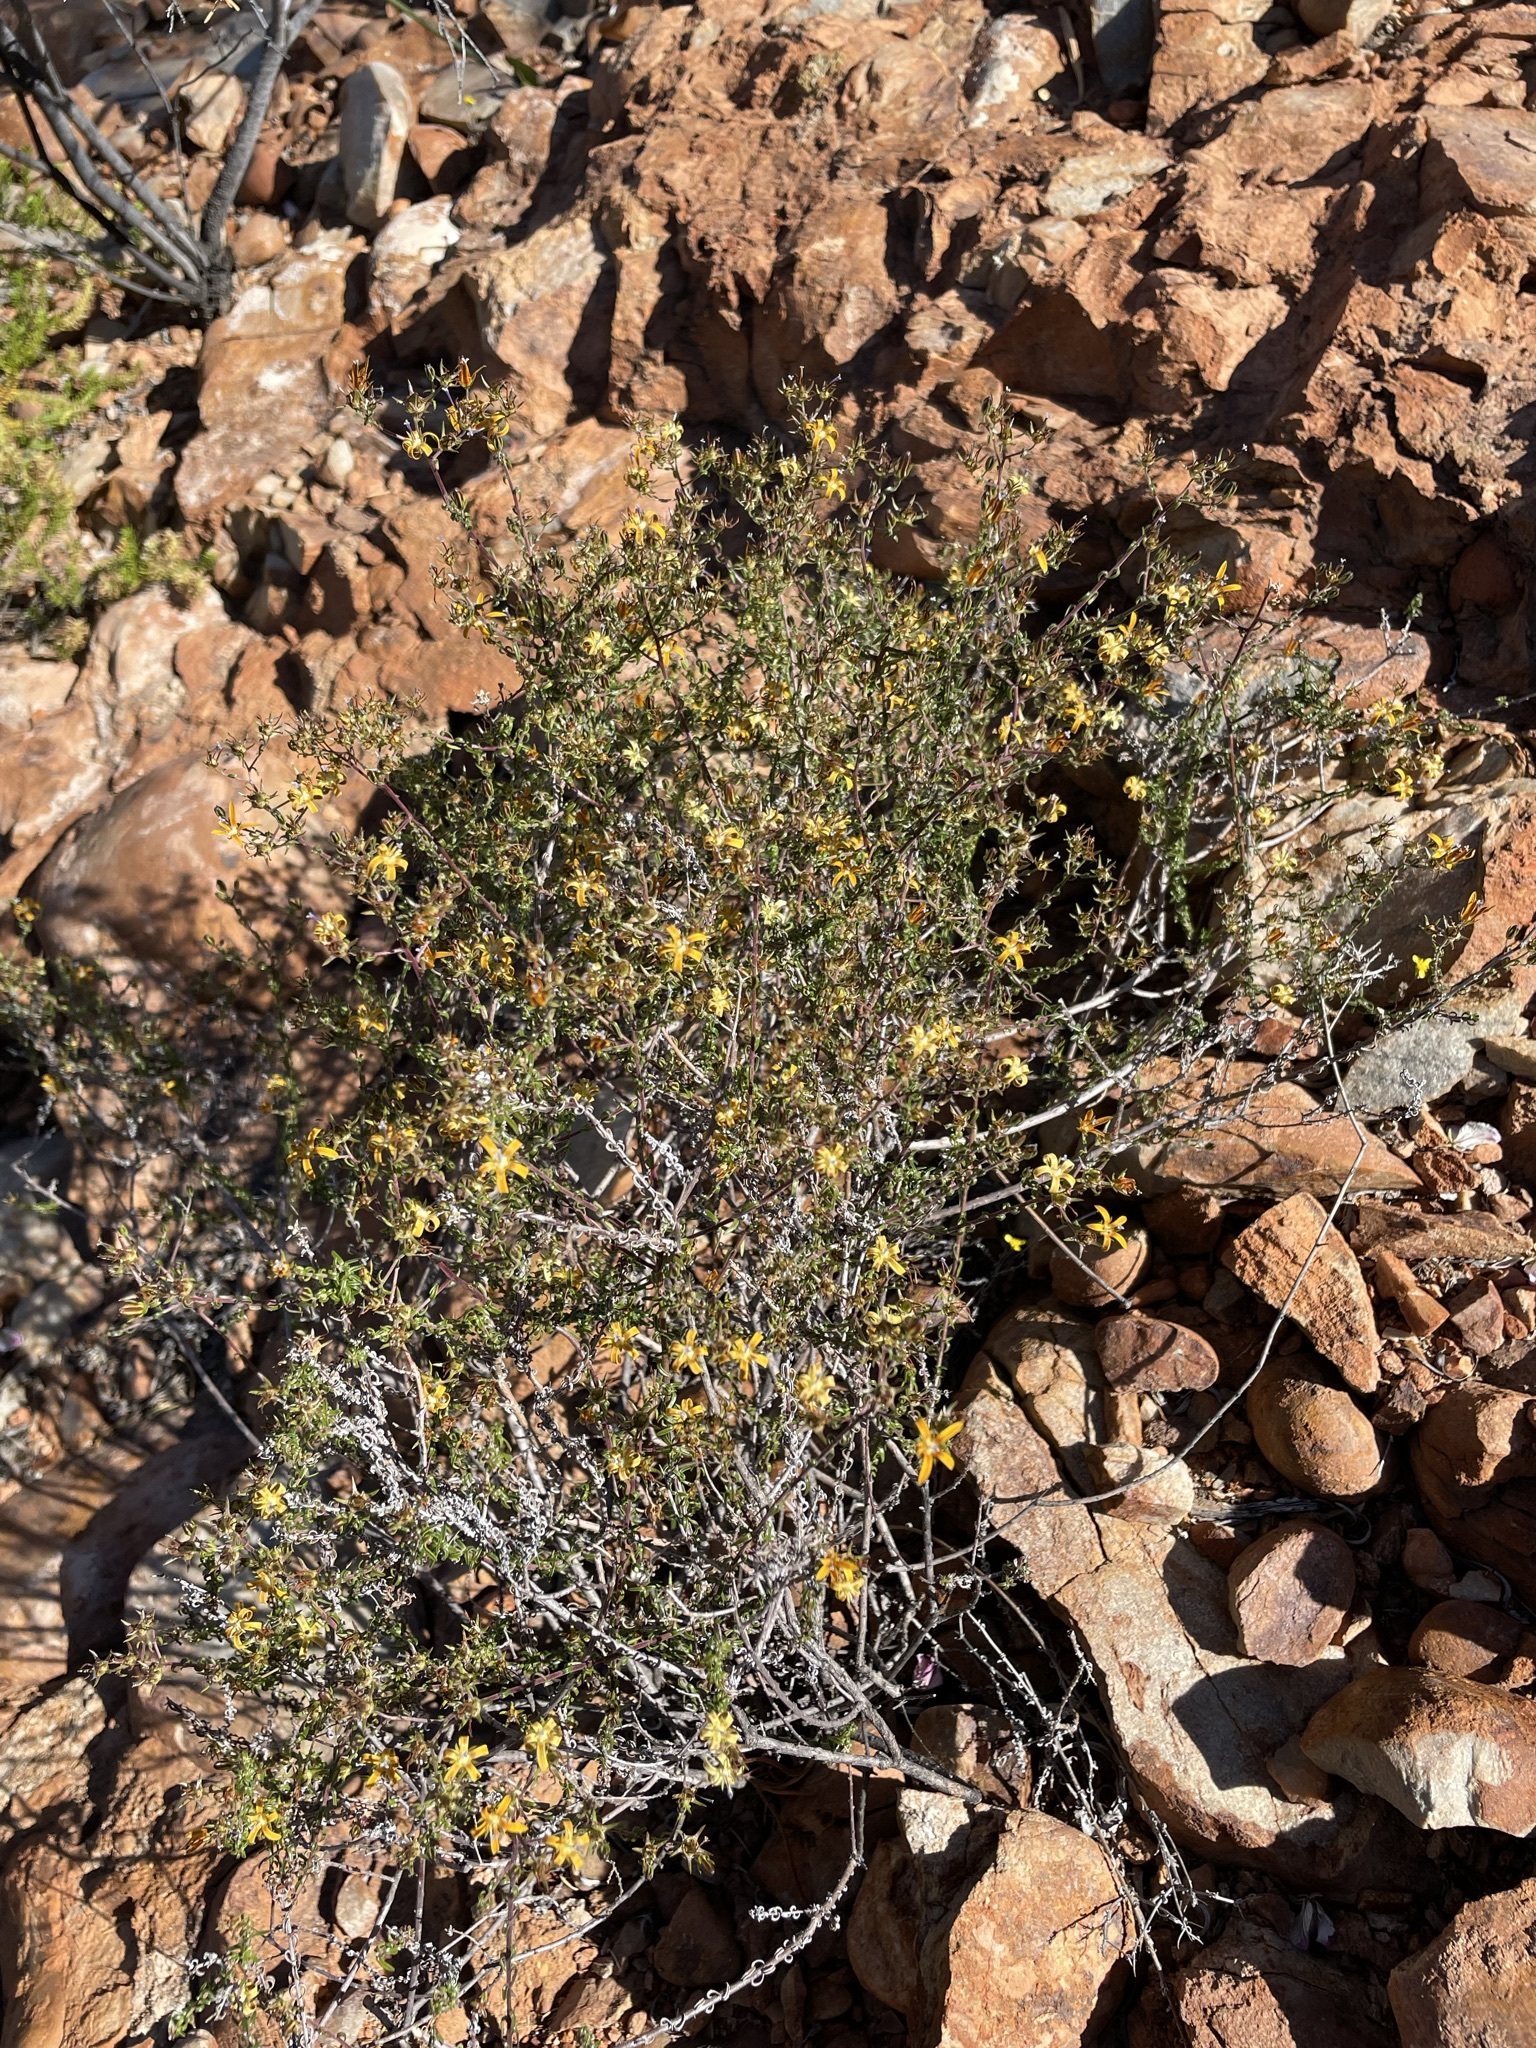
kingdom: Plantae
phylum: Tracheophyta
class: Magnoliopsida
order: Asterales
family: Campanulaceae
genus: Wahlenbergia
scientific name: Wahlenbergia nodosa
